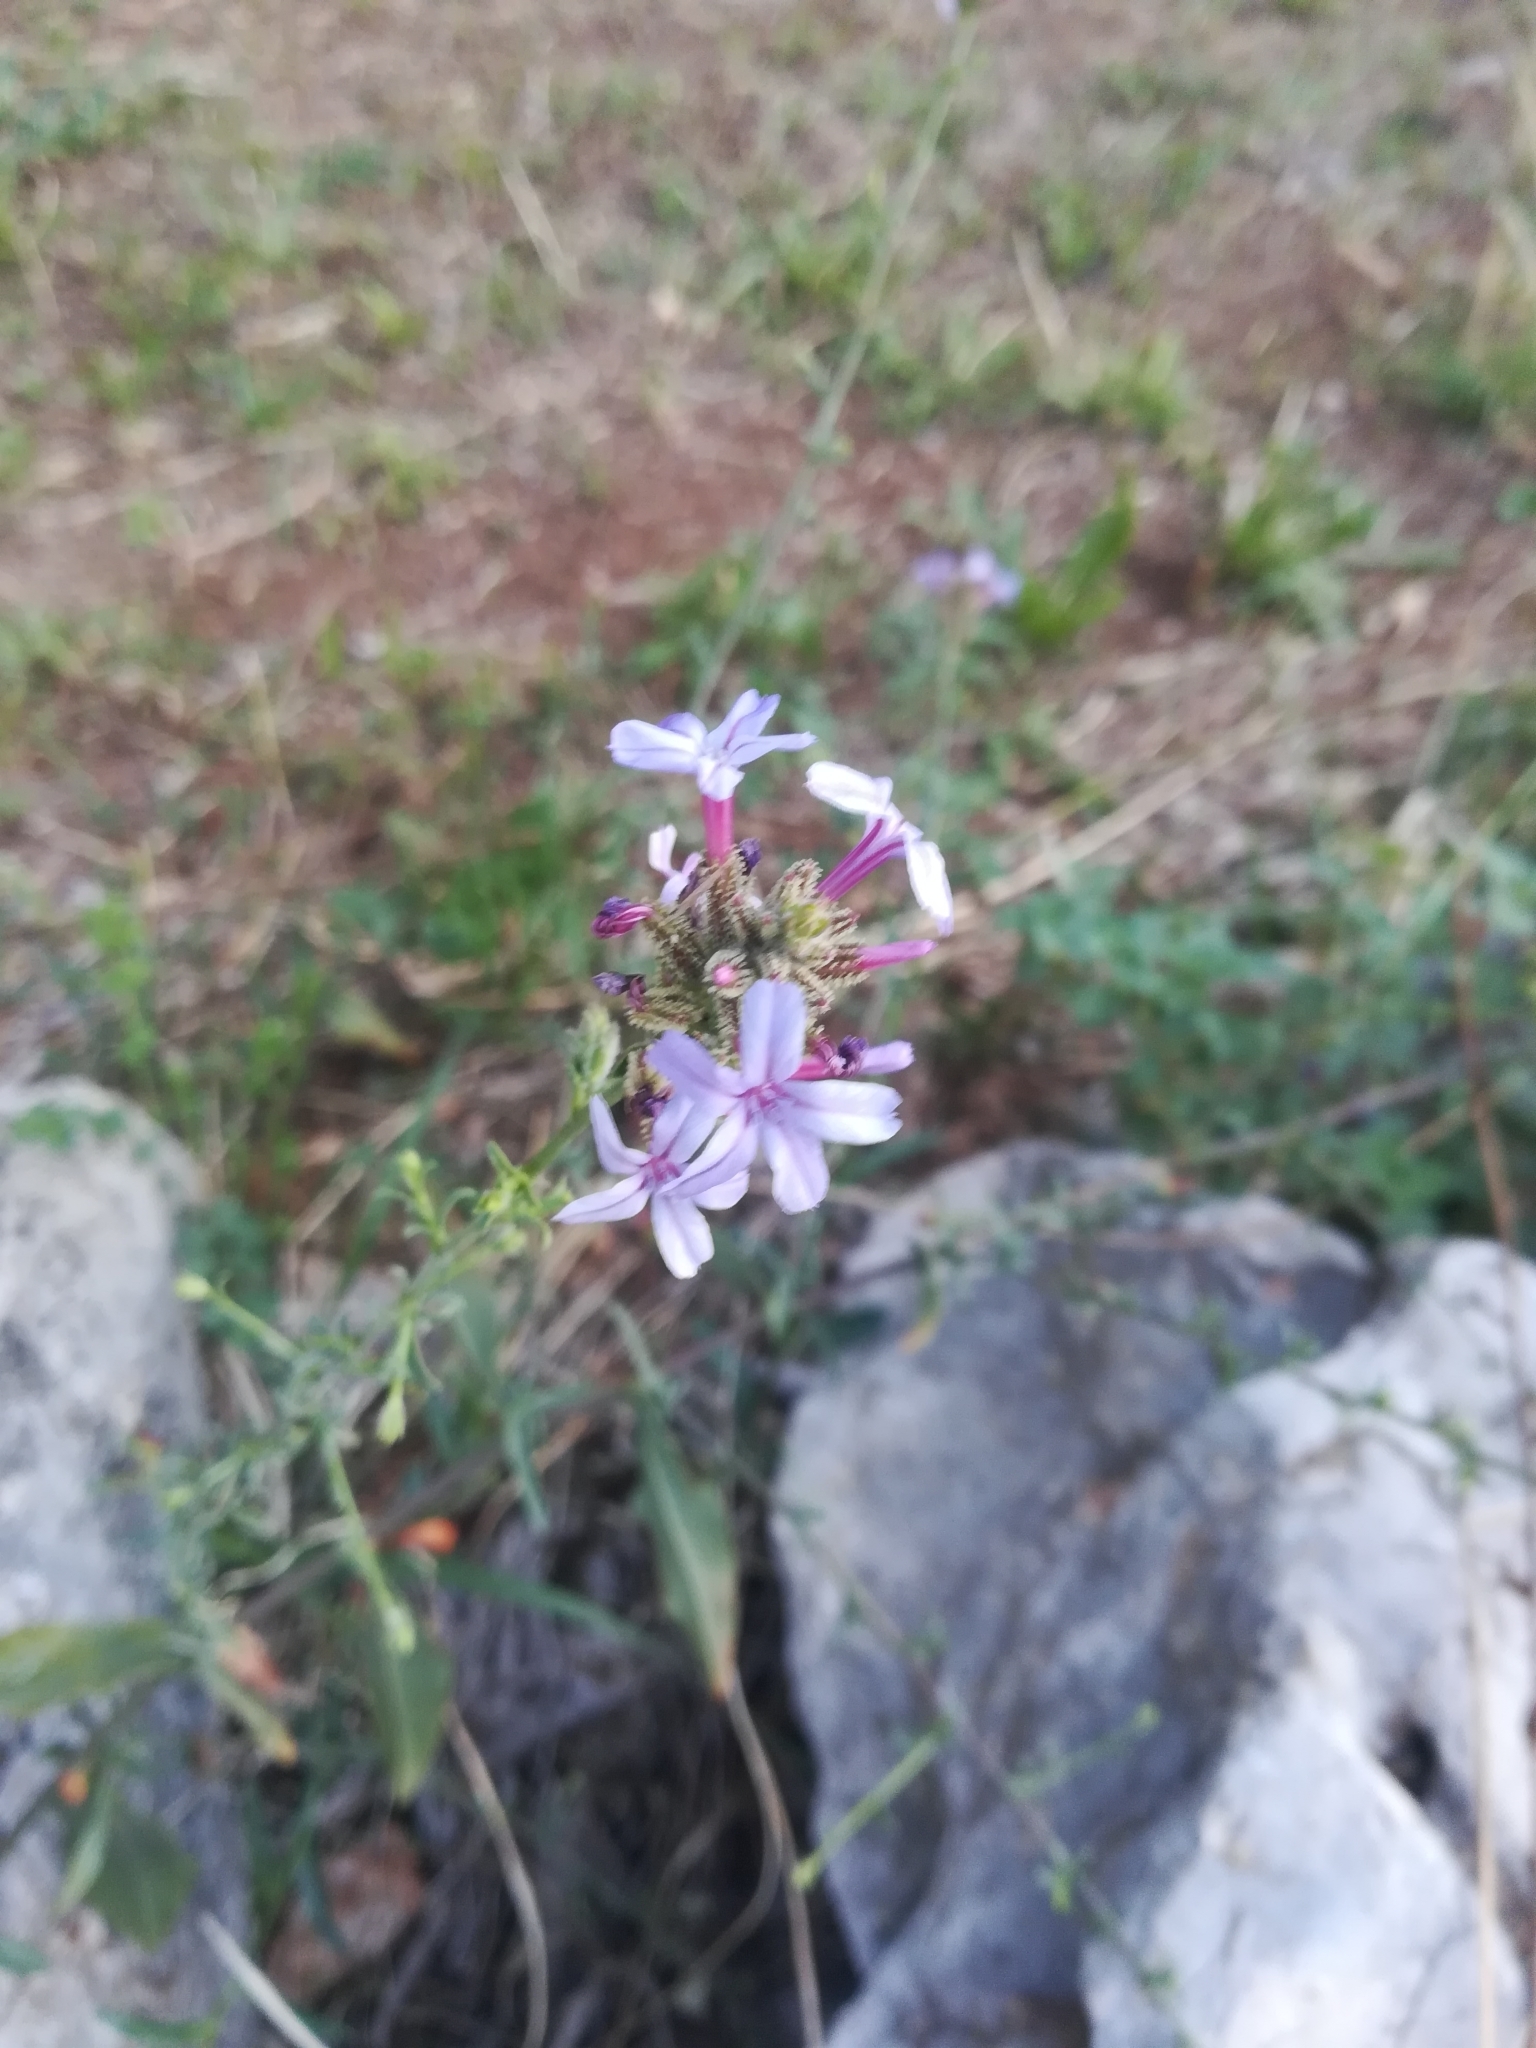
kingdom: Plantae
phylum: Tracheophyta
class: Magnoliopsida
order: Caryophyllales
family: Plumbaginaceae
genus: Plumbago
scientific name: Plumbago europaea
